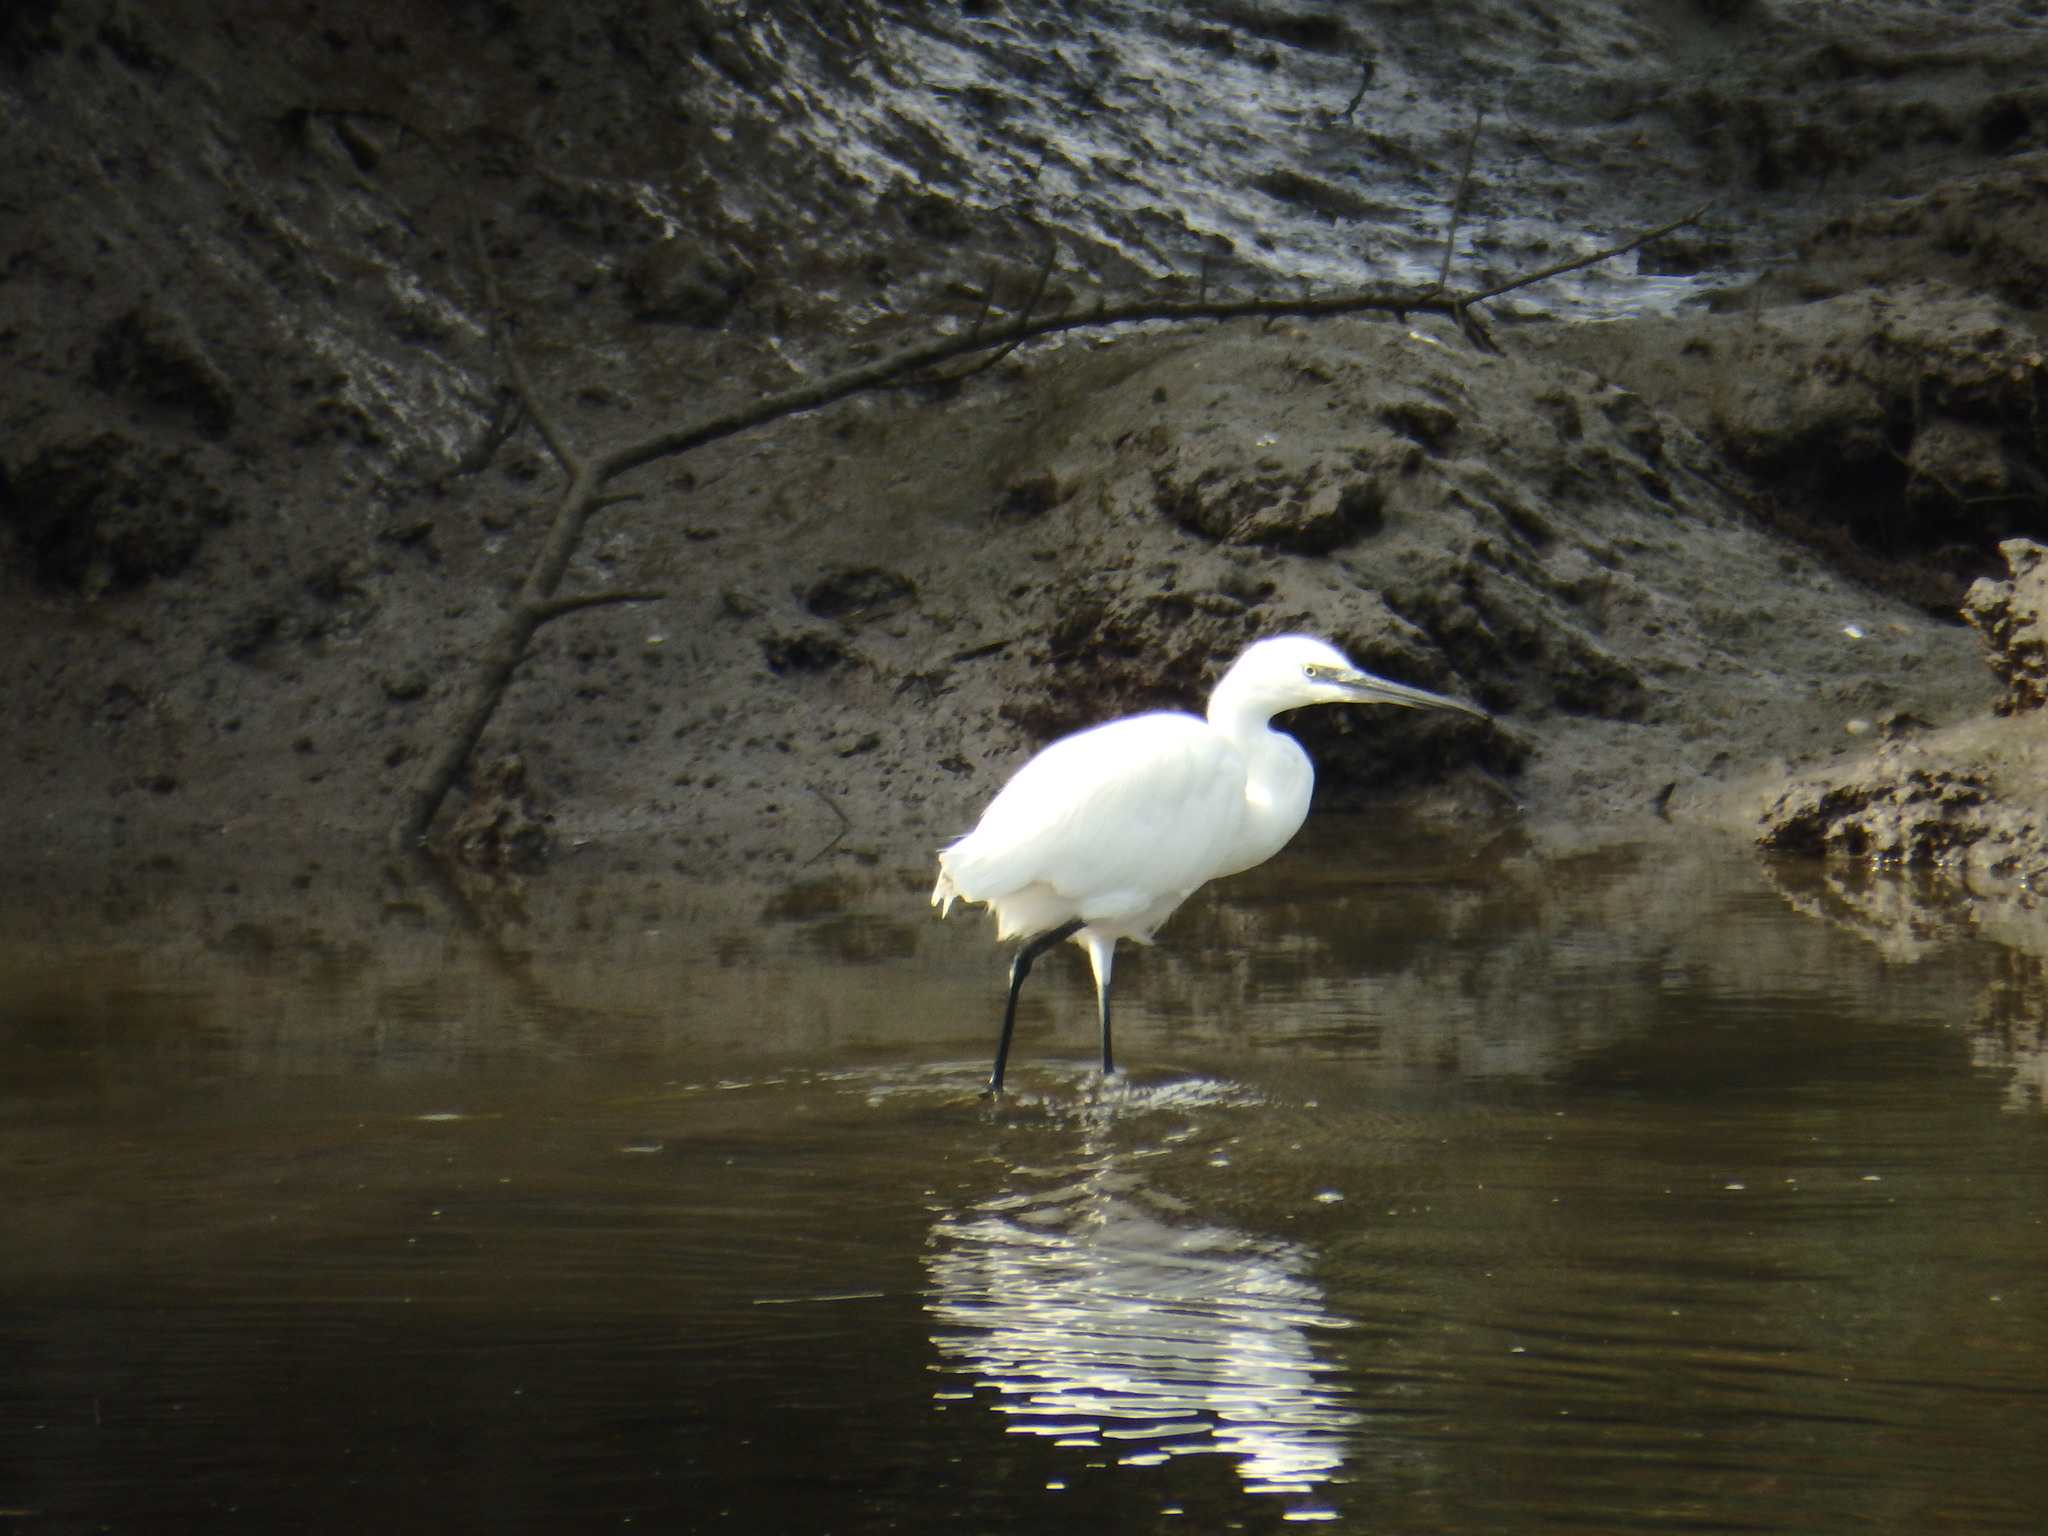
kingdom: Animalia
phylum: Chordata
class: Aves
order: Pelecaniformes
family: Ardeidae
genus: Egretta
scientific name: Egretta garzetta
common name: Little egret
